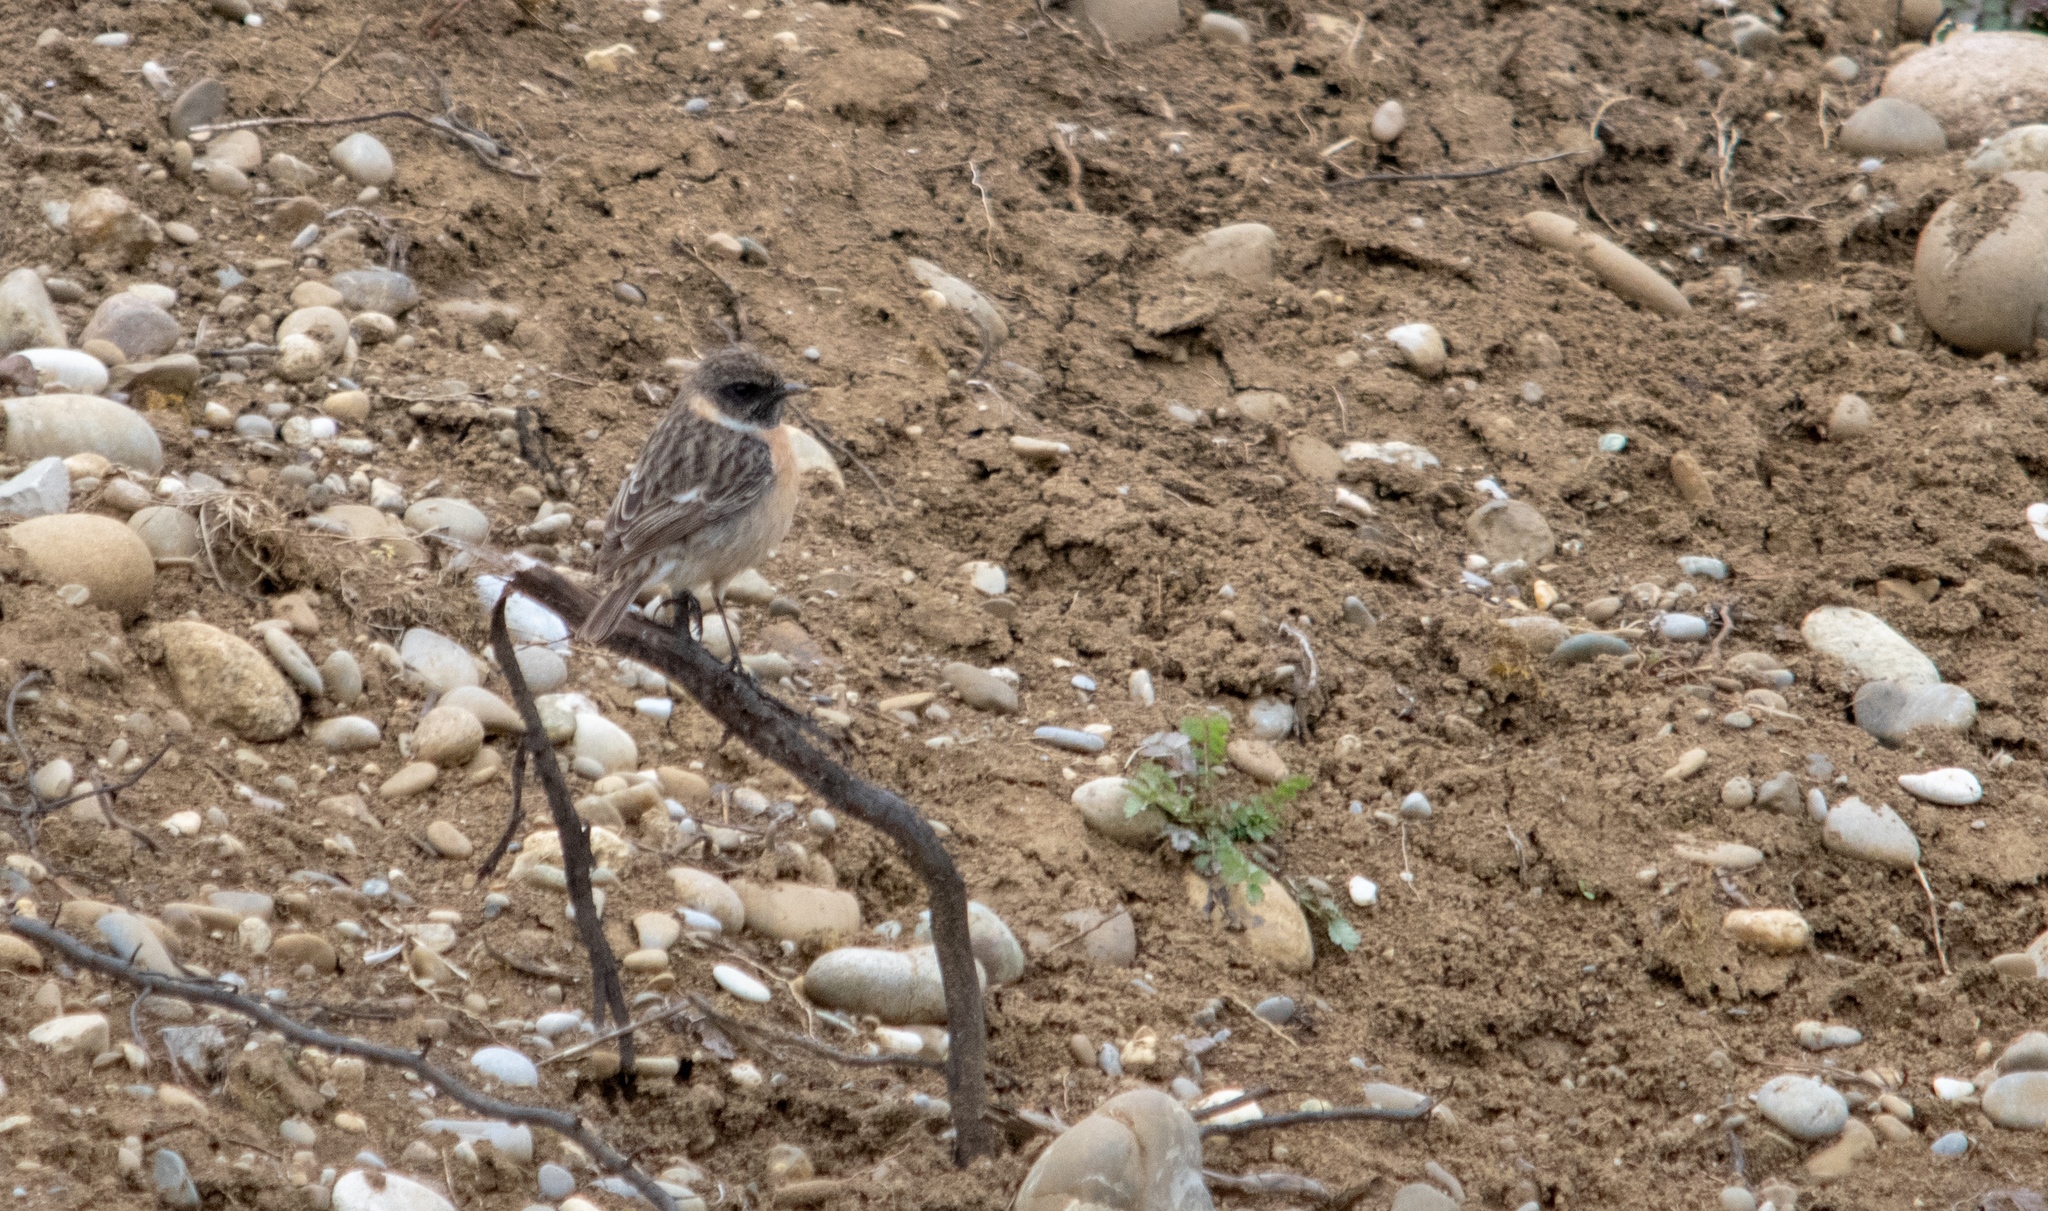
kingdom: Animalia
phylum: Chordata
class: Aves
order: Passeriformes
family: Muscicapidae
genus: Saxicola
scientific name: Saxicola rubicola
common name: European stonechat
